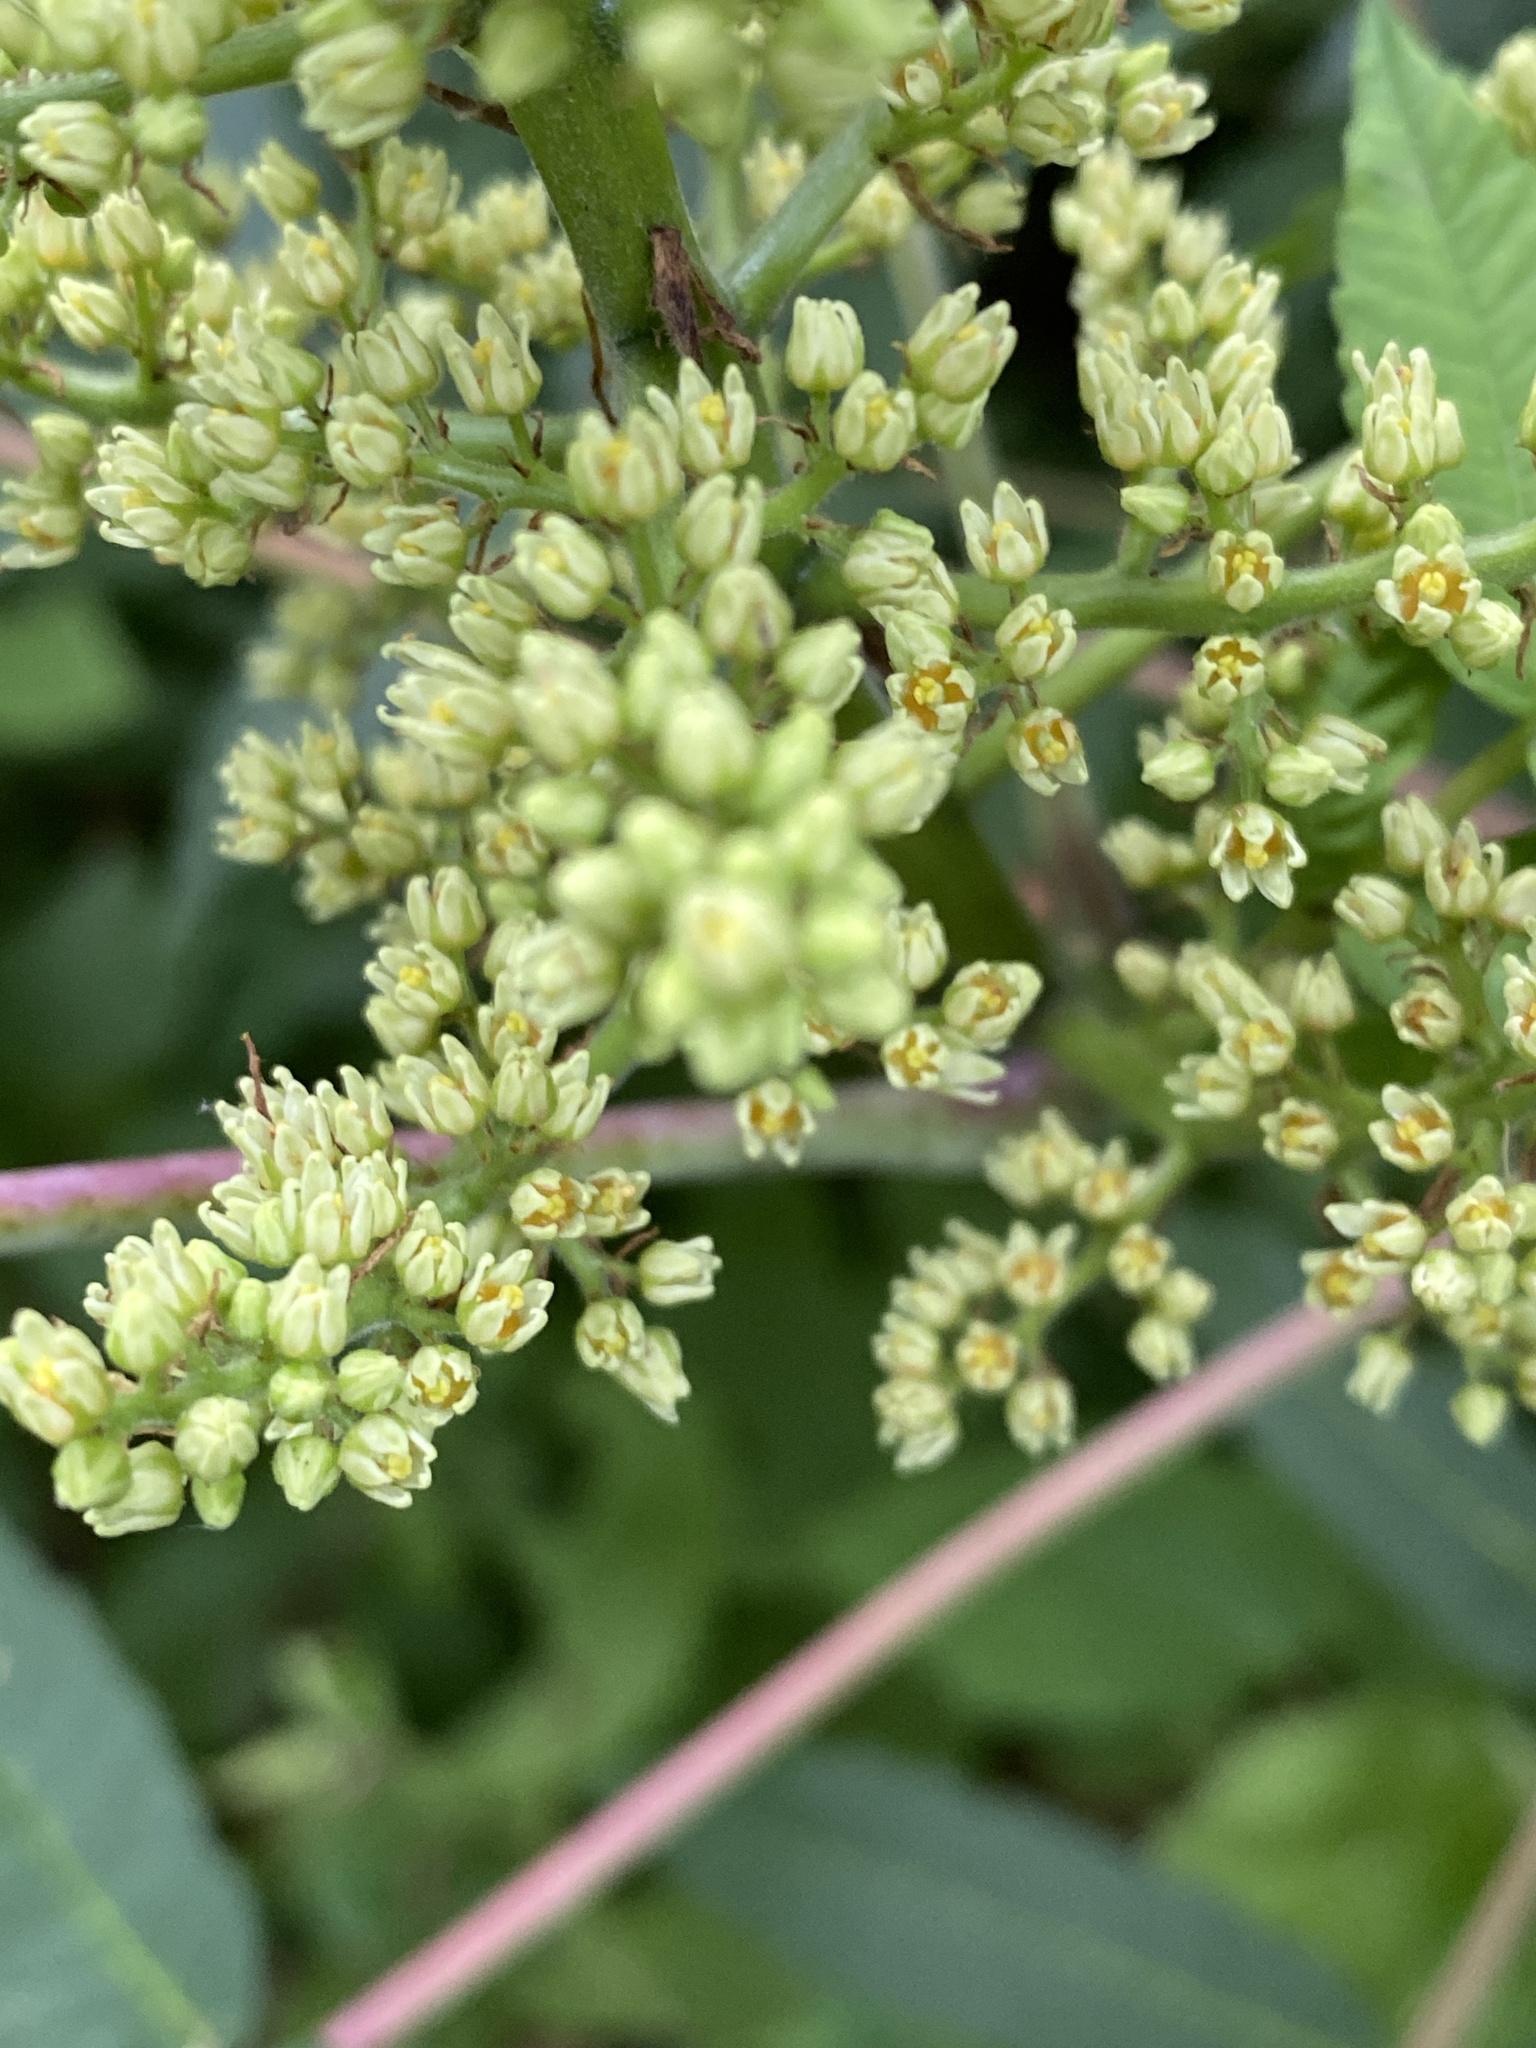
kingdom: Plantae
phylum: Tracheophyta
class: Magnoliopsida
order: Sapindales
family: Anacardiaceae
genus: Rhus
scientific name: Rhus glabra
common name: Scarlet sumac
